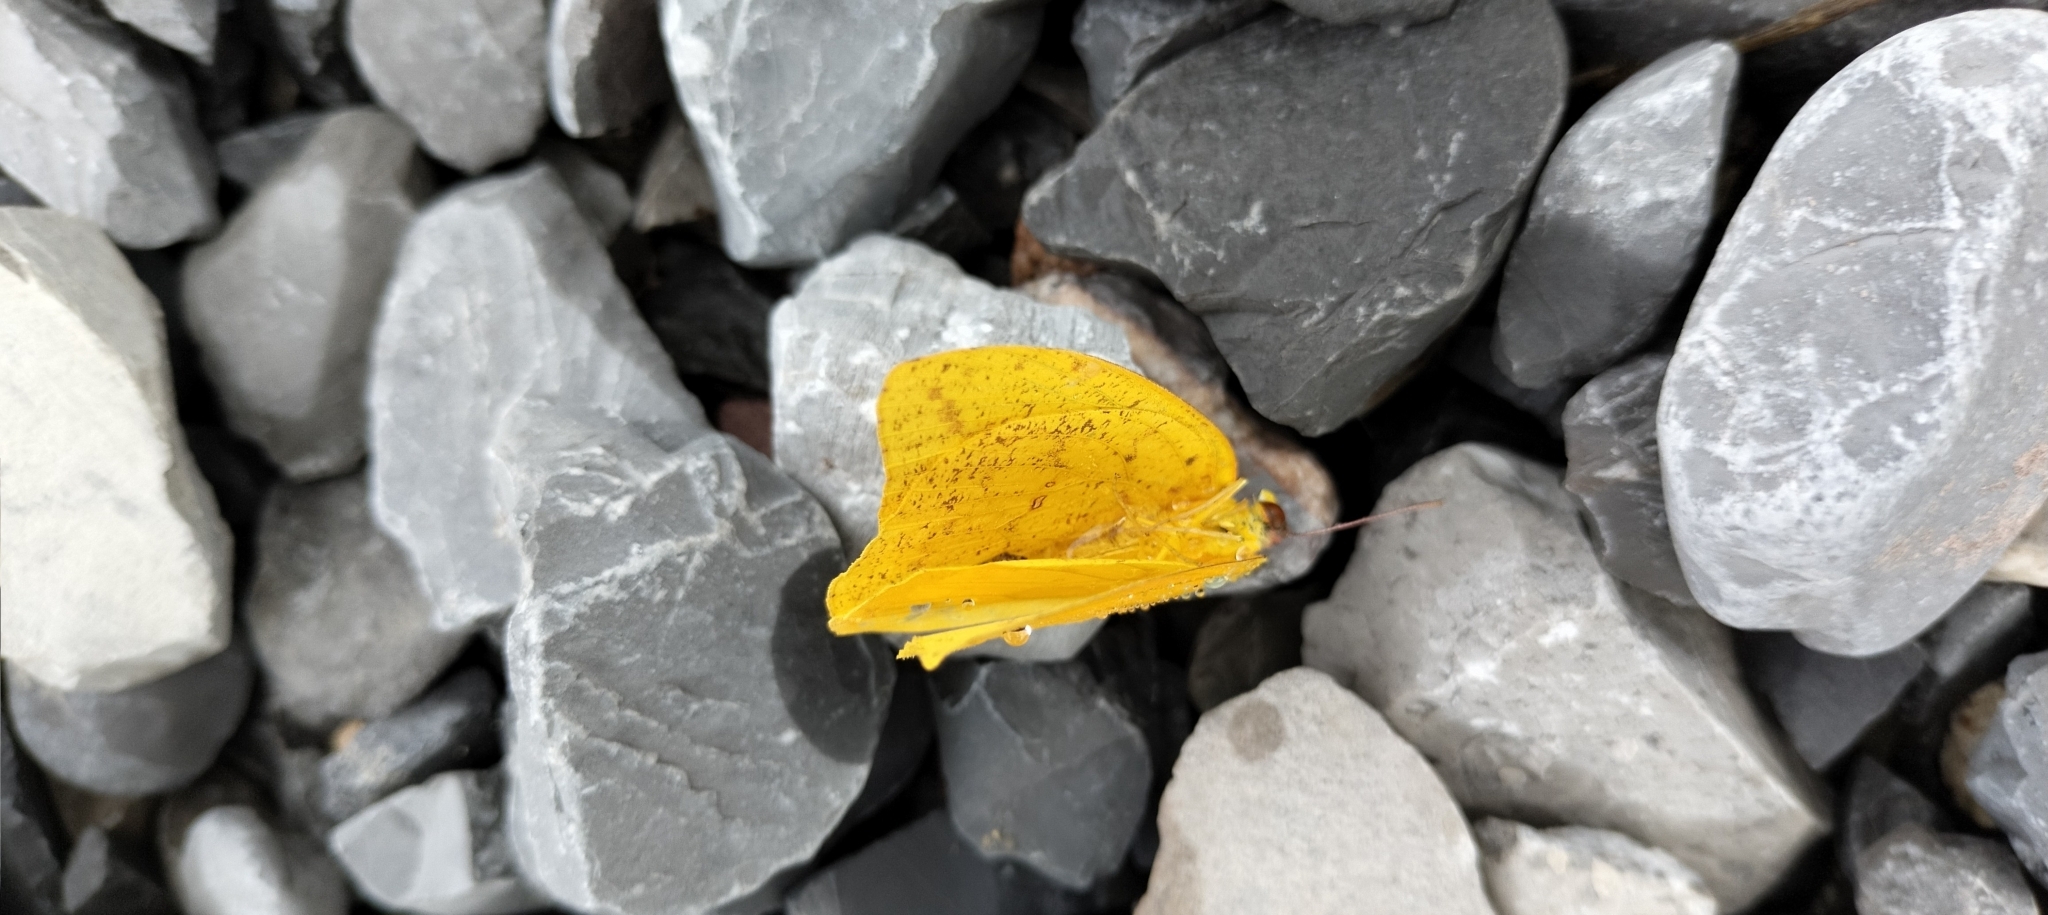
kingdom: Animalia
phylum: Arthropoda
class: Insecta
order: Lepidoptera
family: Pieridae
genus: Phoebis
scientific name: Phoebis agarithe
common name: Large orange sulphur
